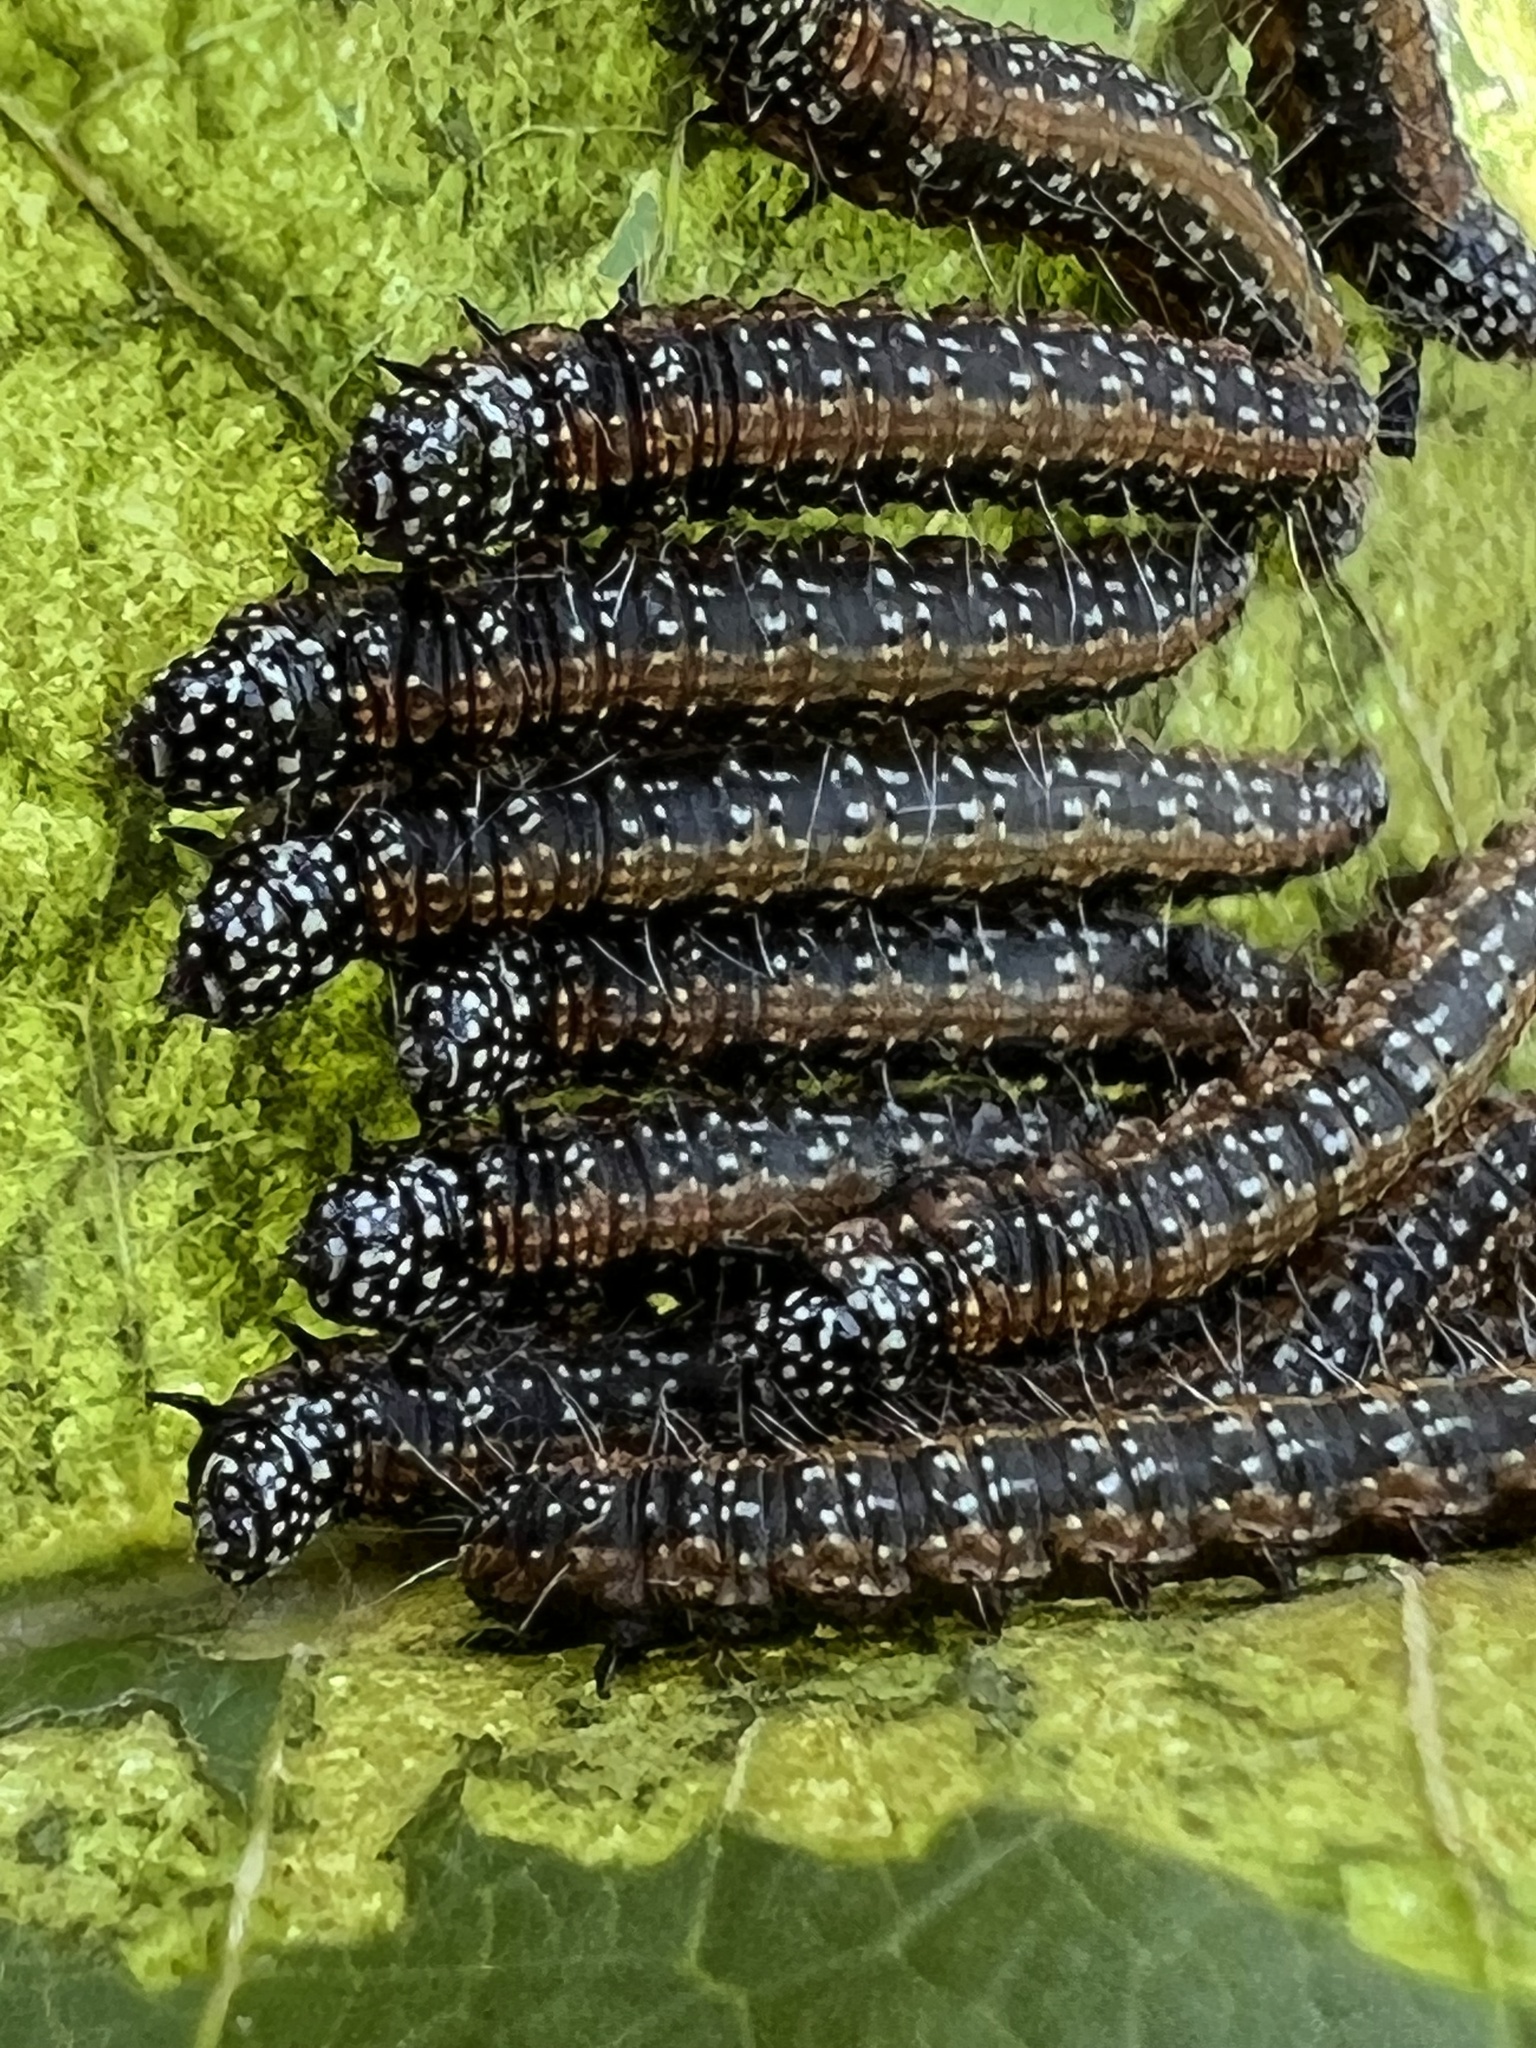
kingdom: Animalia
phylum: Arthropoda
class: Insecta
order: Lepidoptera
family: Pyralidae
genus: Omphalocera
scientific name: Omphalocera munroei
